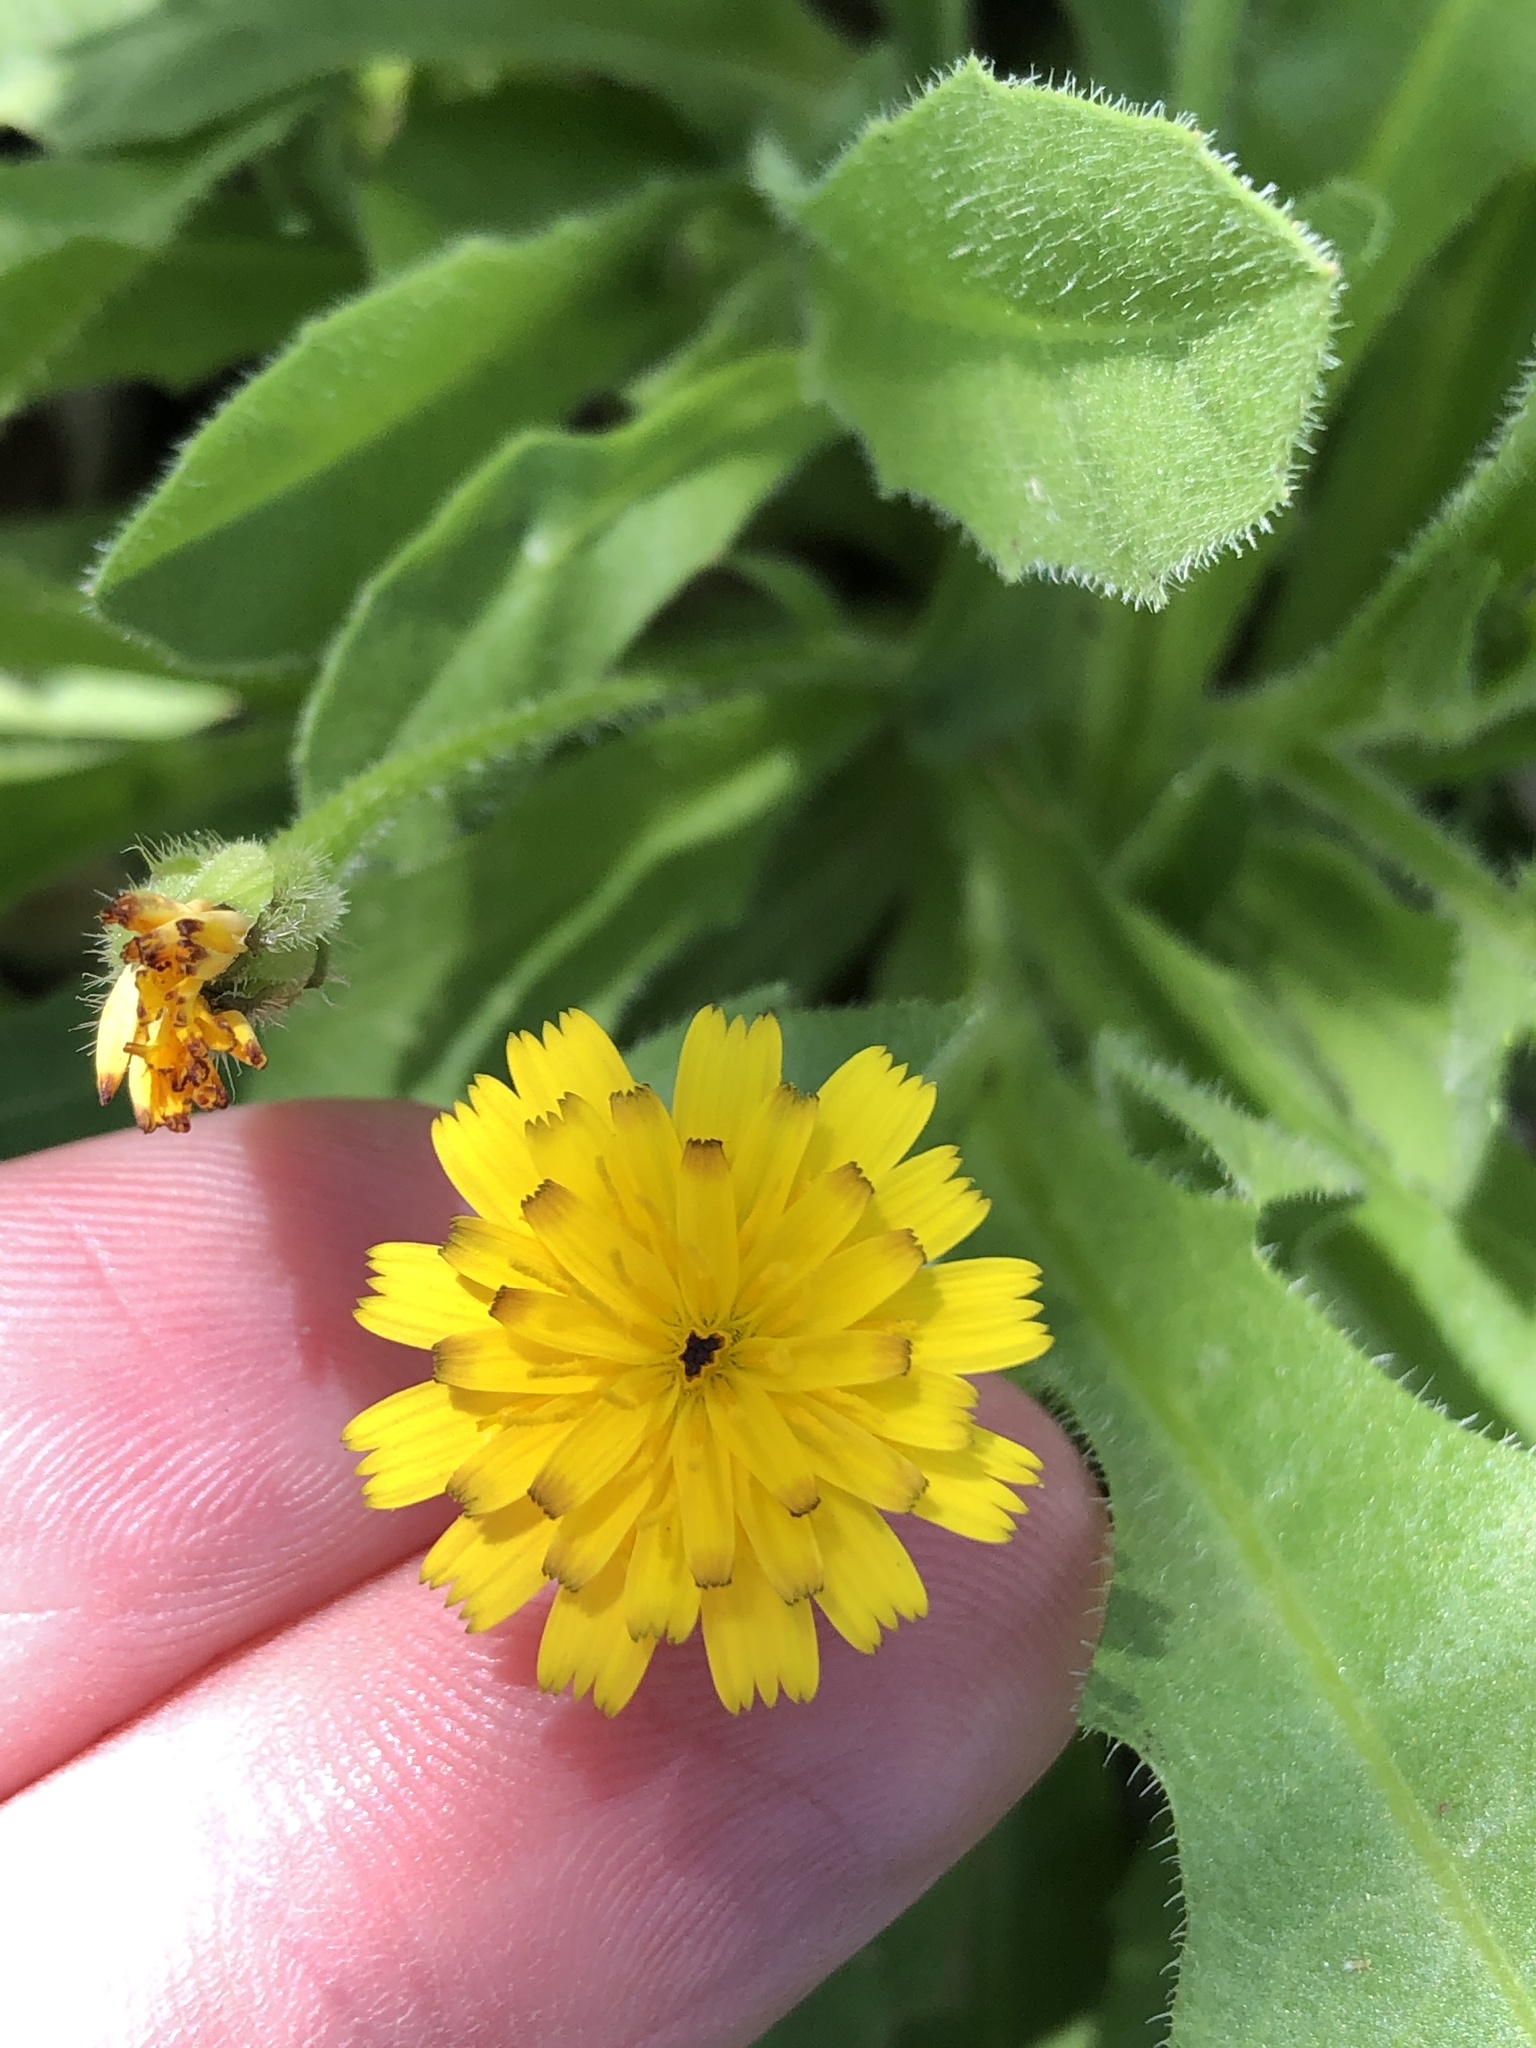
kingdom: Plantae
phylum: Tracheophyta
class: Magnoliopsida
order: Asterales
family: Asteraceae
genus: Hedypnois
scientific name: Hedypnois rhagadioloides
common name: Cretan weed
